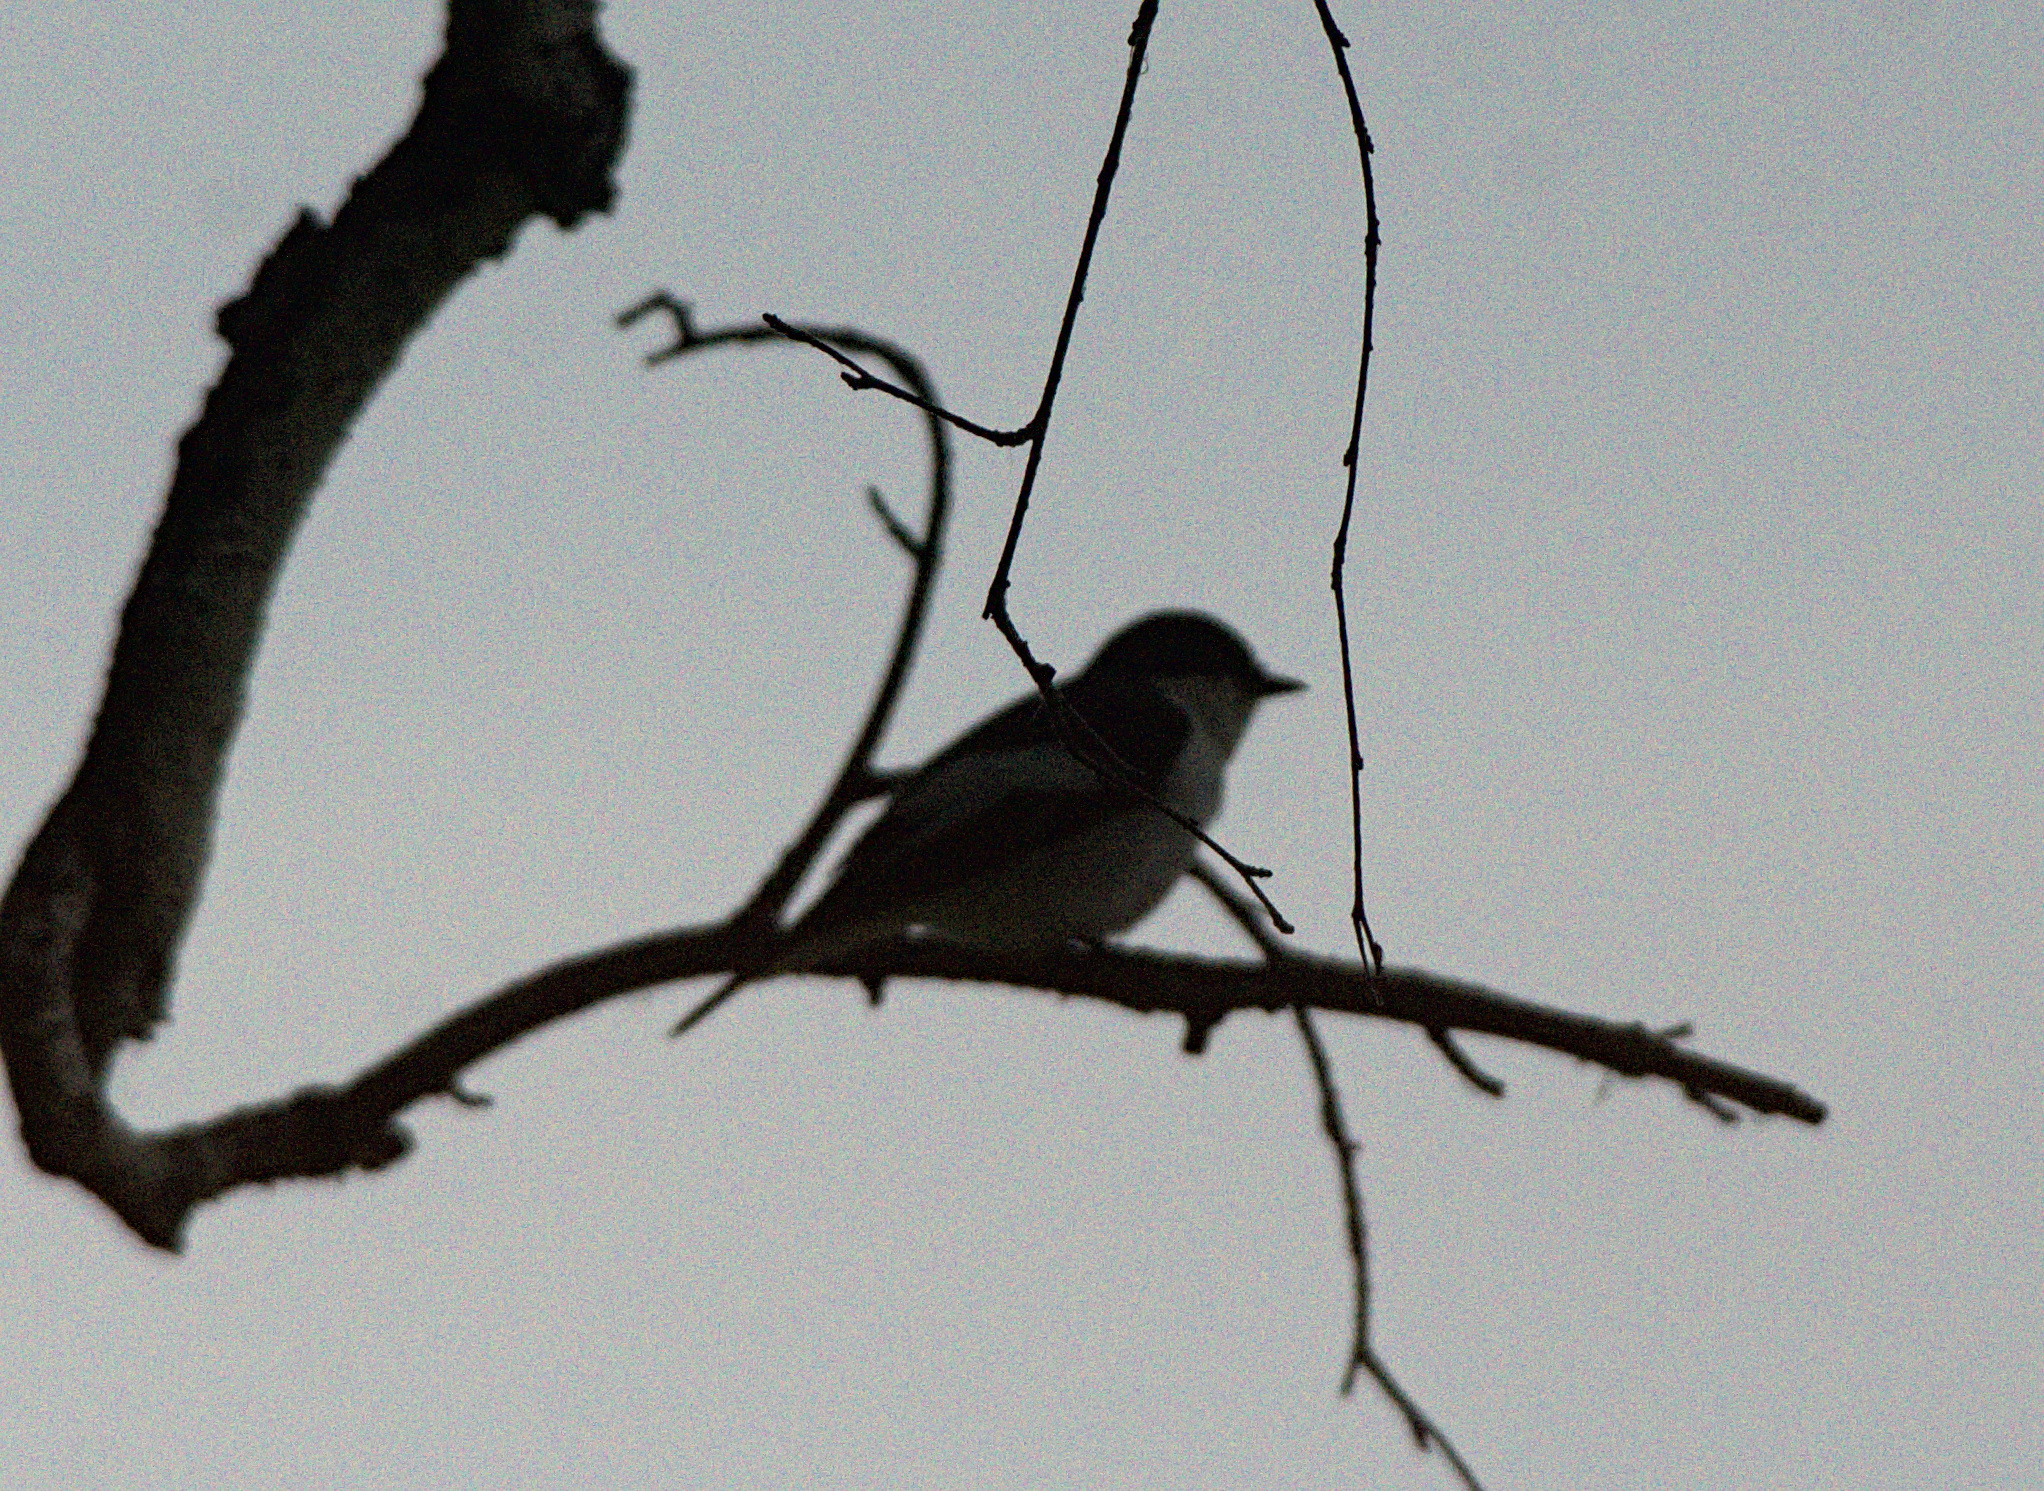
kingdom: Animalia
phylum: Chordata
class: Aves
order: Passeriformes
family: Muscicapidae
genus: Ficedula
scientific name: Ficedula hypoleuca
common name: European pied flycatcher
